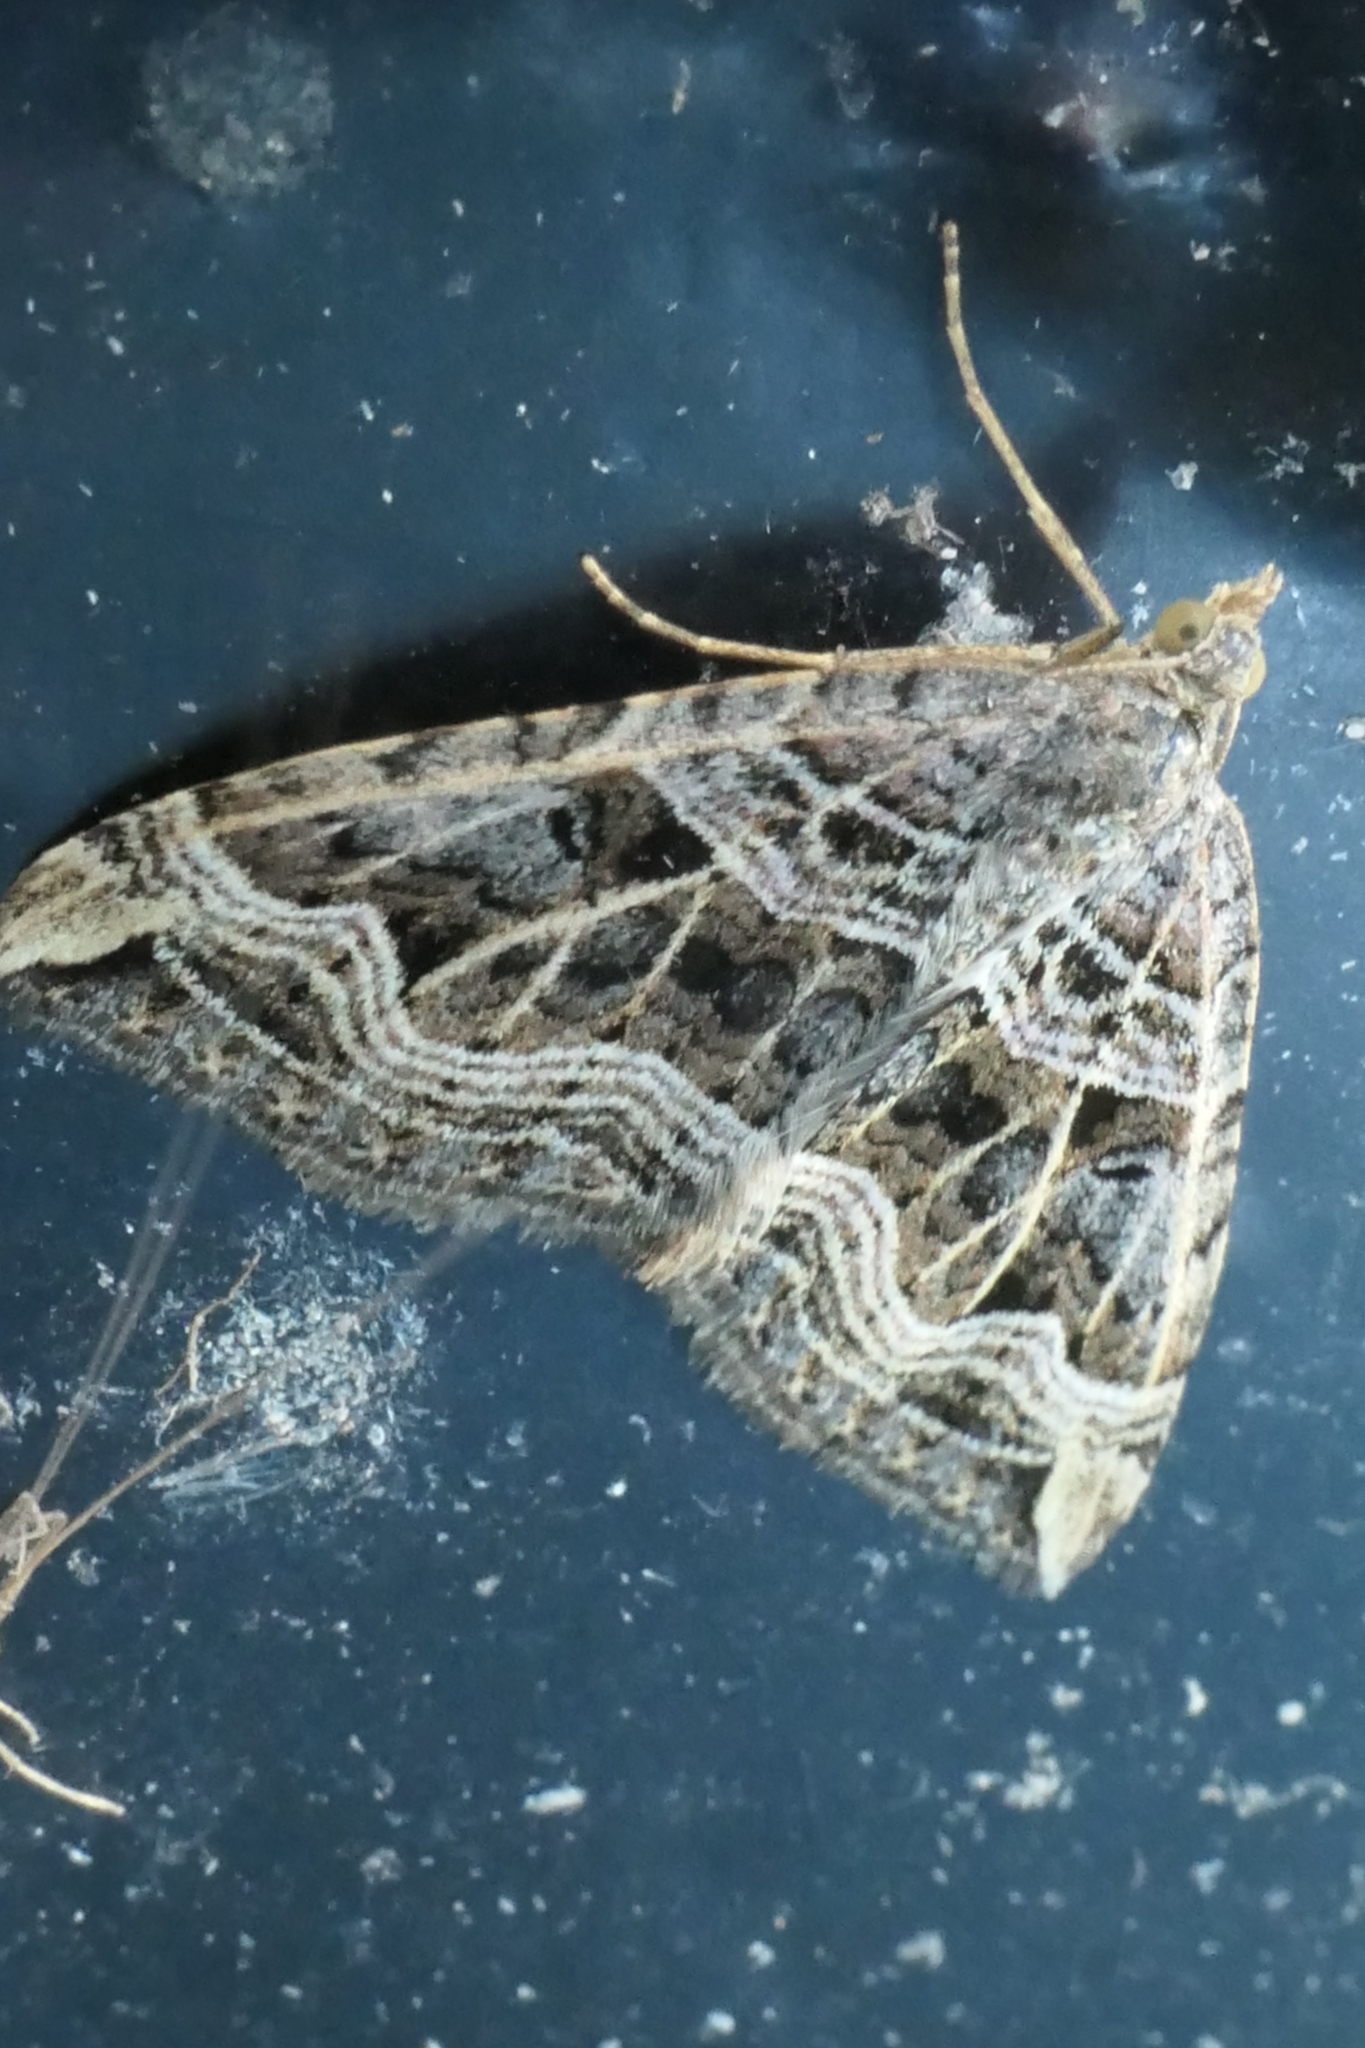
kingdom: Animalia
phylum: Arthropoda
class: Insecta
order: Lepidoptera
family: Geometridae
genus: Xanthorhoe
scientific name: Xanthorhoe semifissata
